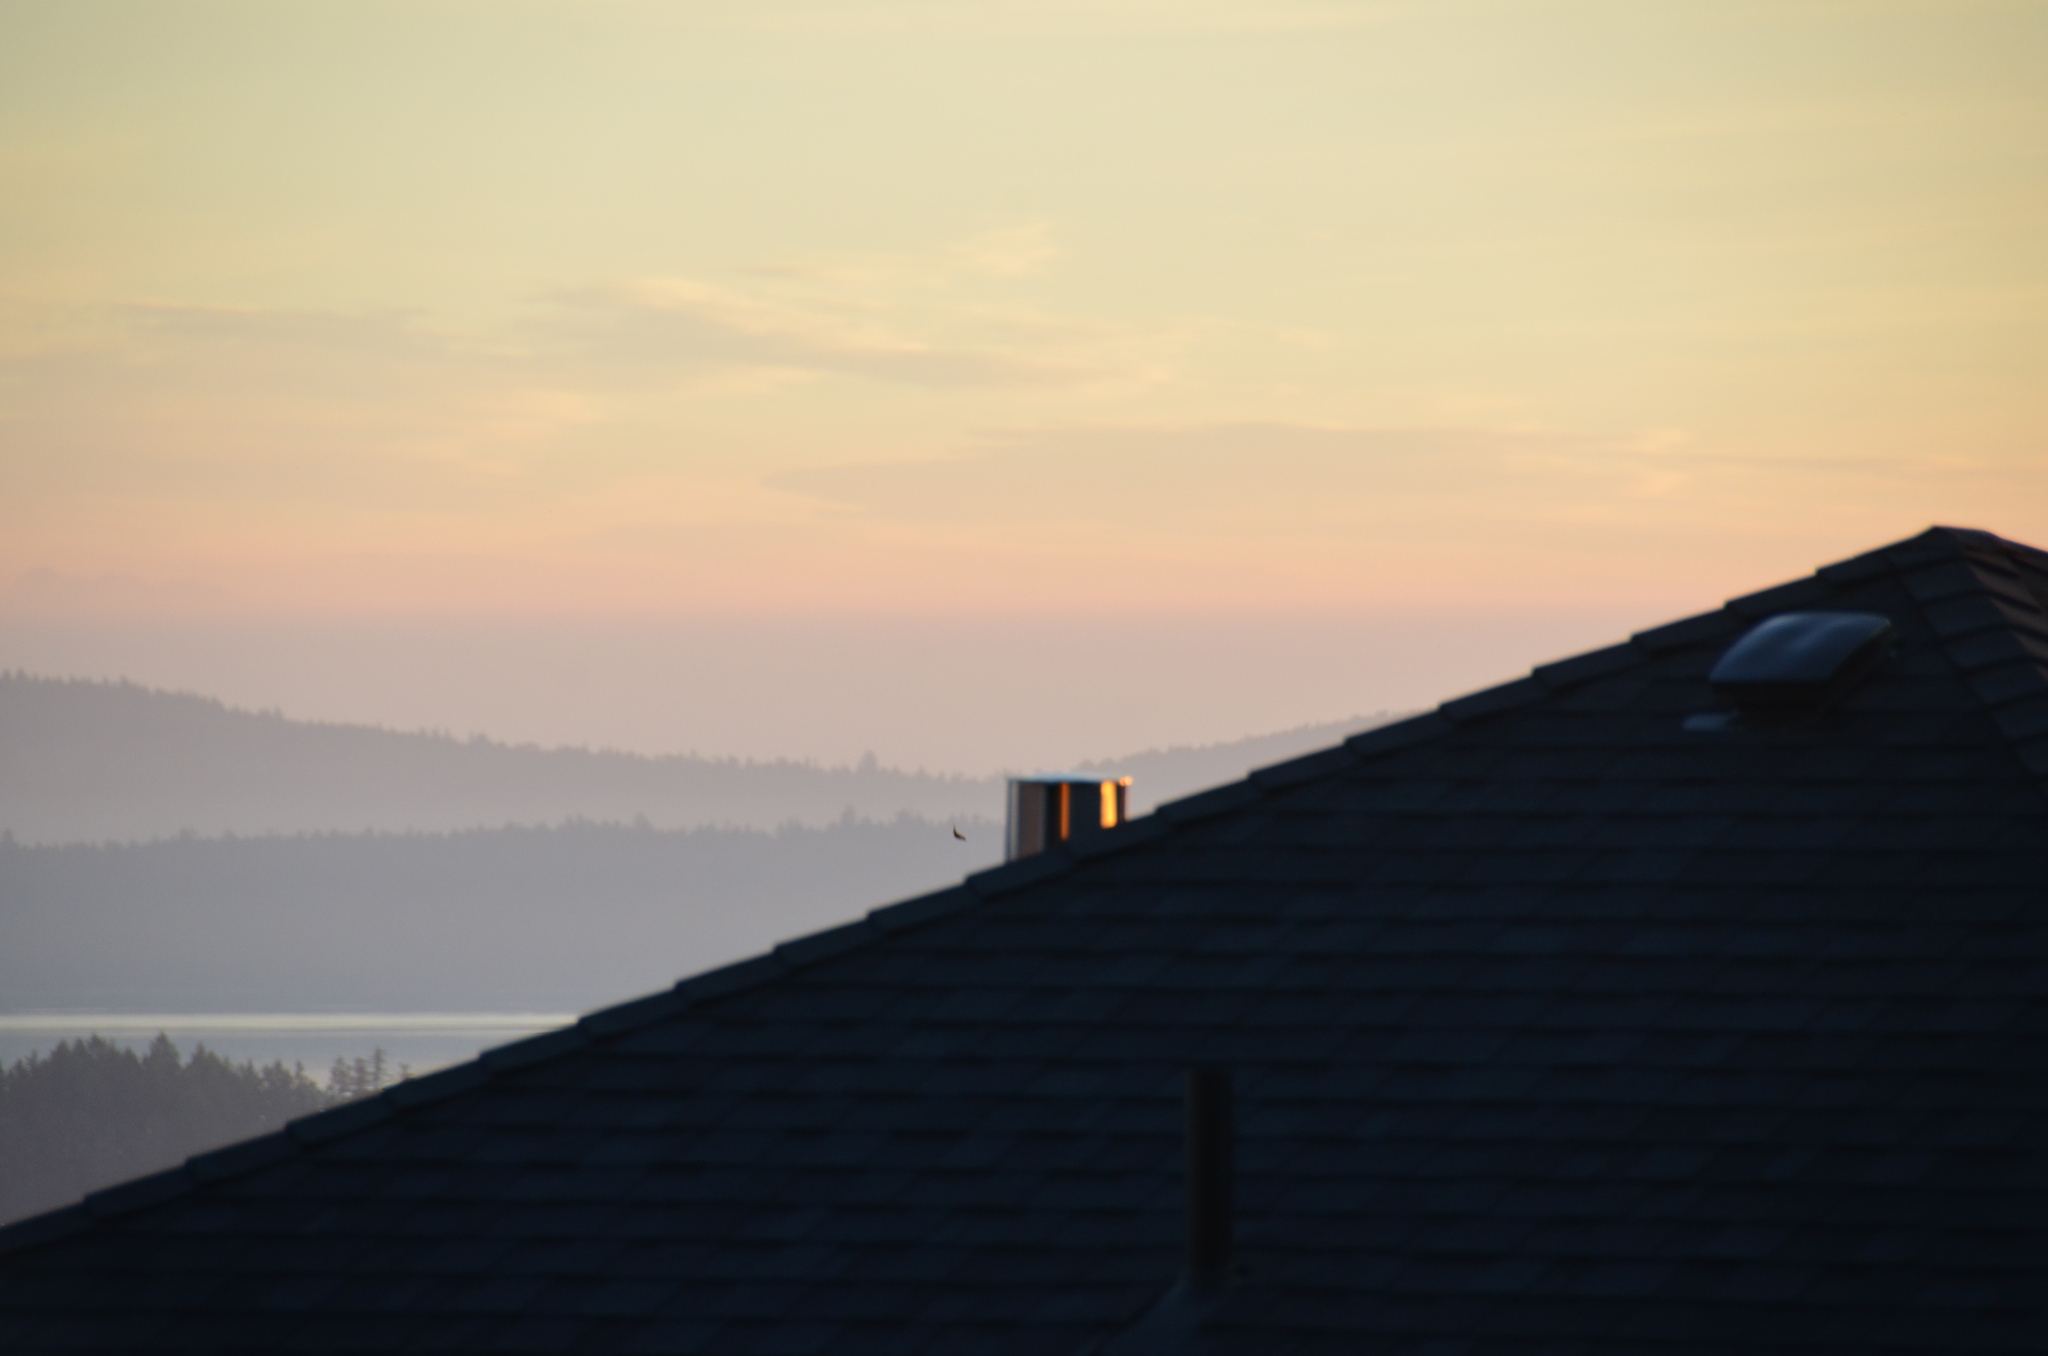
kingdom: Animalia
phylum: Chordata
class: Aves
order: Passeriformes
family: Icteridae
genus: Euphagus
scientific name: Euphagus cyanocephalus
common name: Brewer's blackbird
